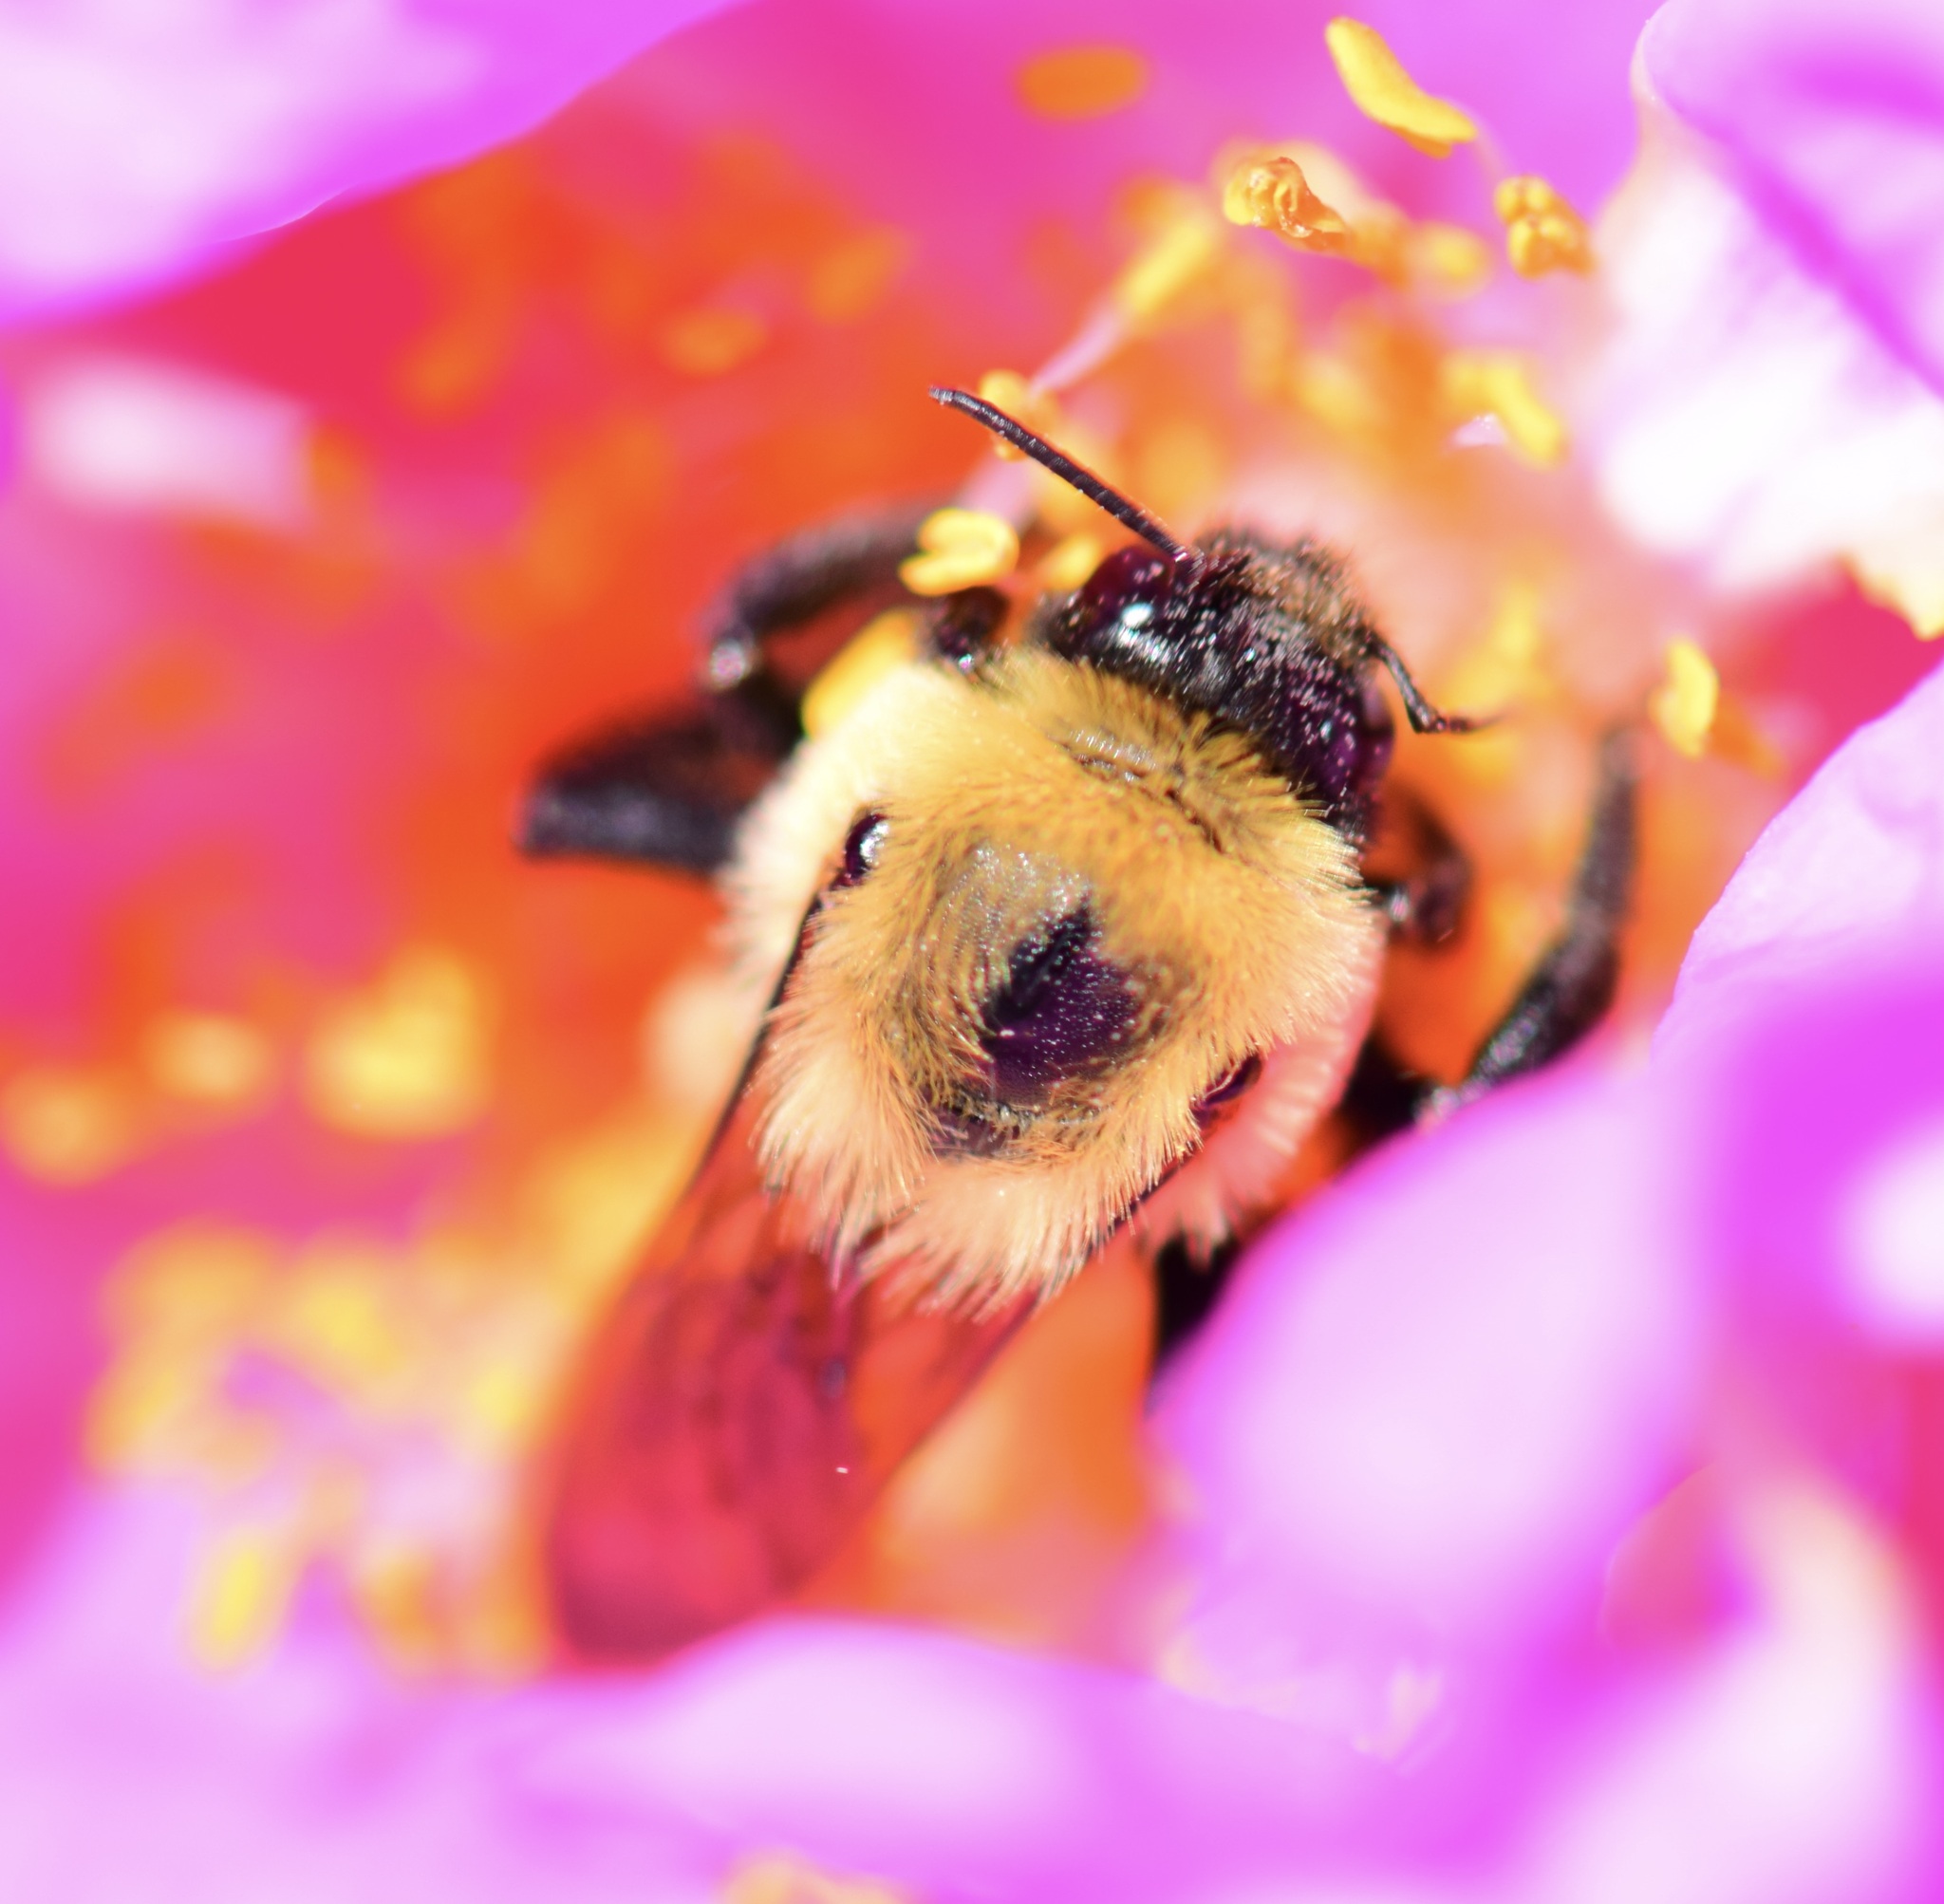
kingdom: Animalia
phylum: Arthropoda
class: Insecta
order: Hymenoptera
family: Apidae
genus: Bombus
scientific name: Bombus griseocollis
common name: Brown-belted bumble bee
